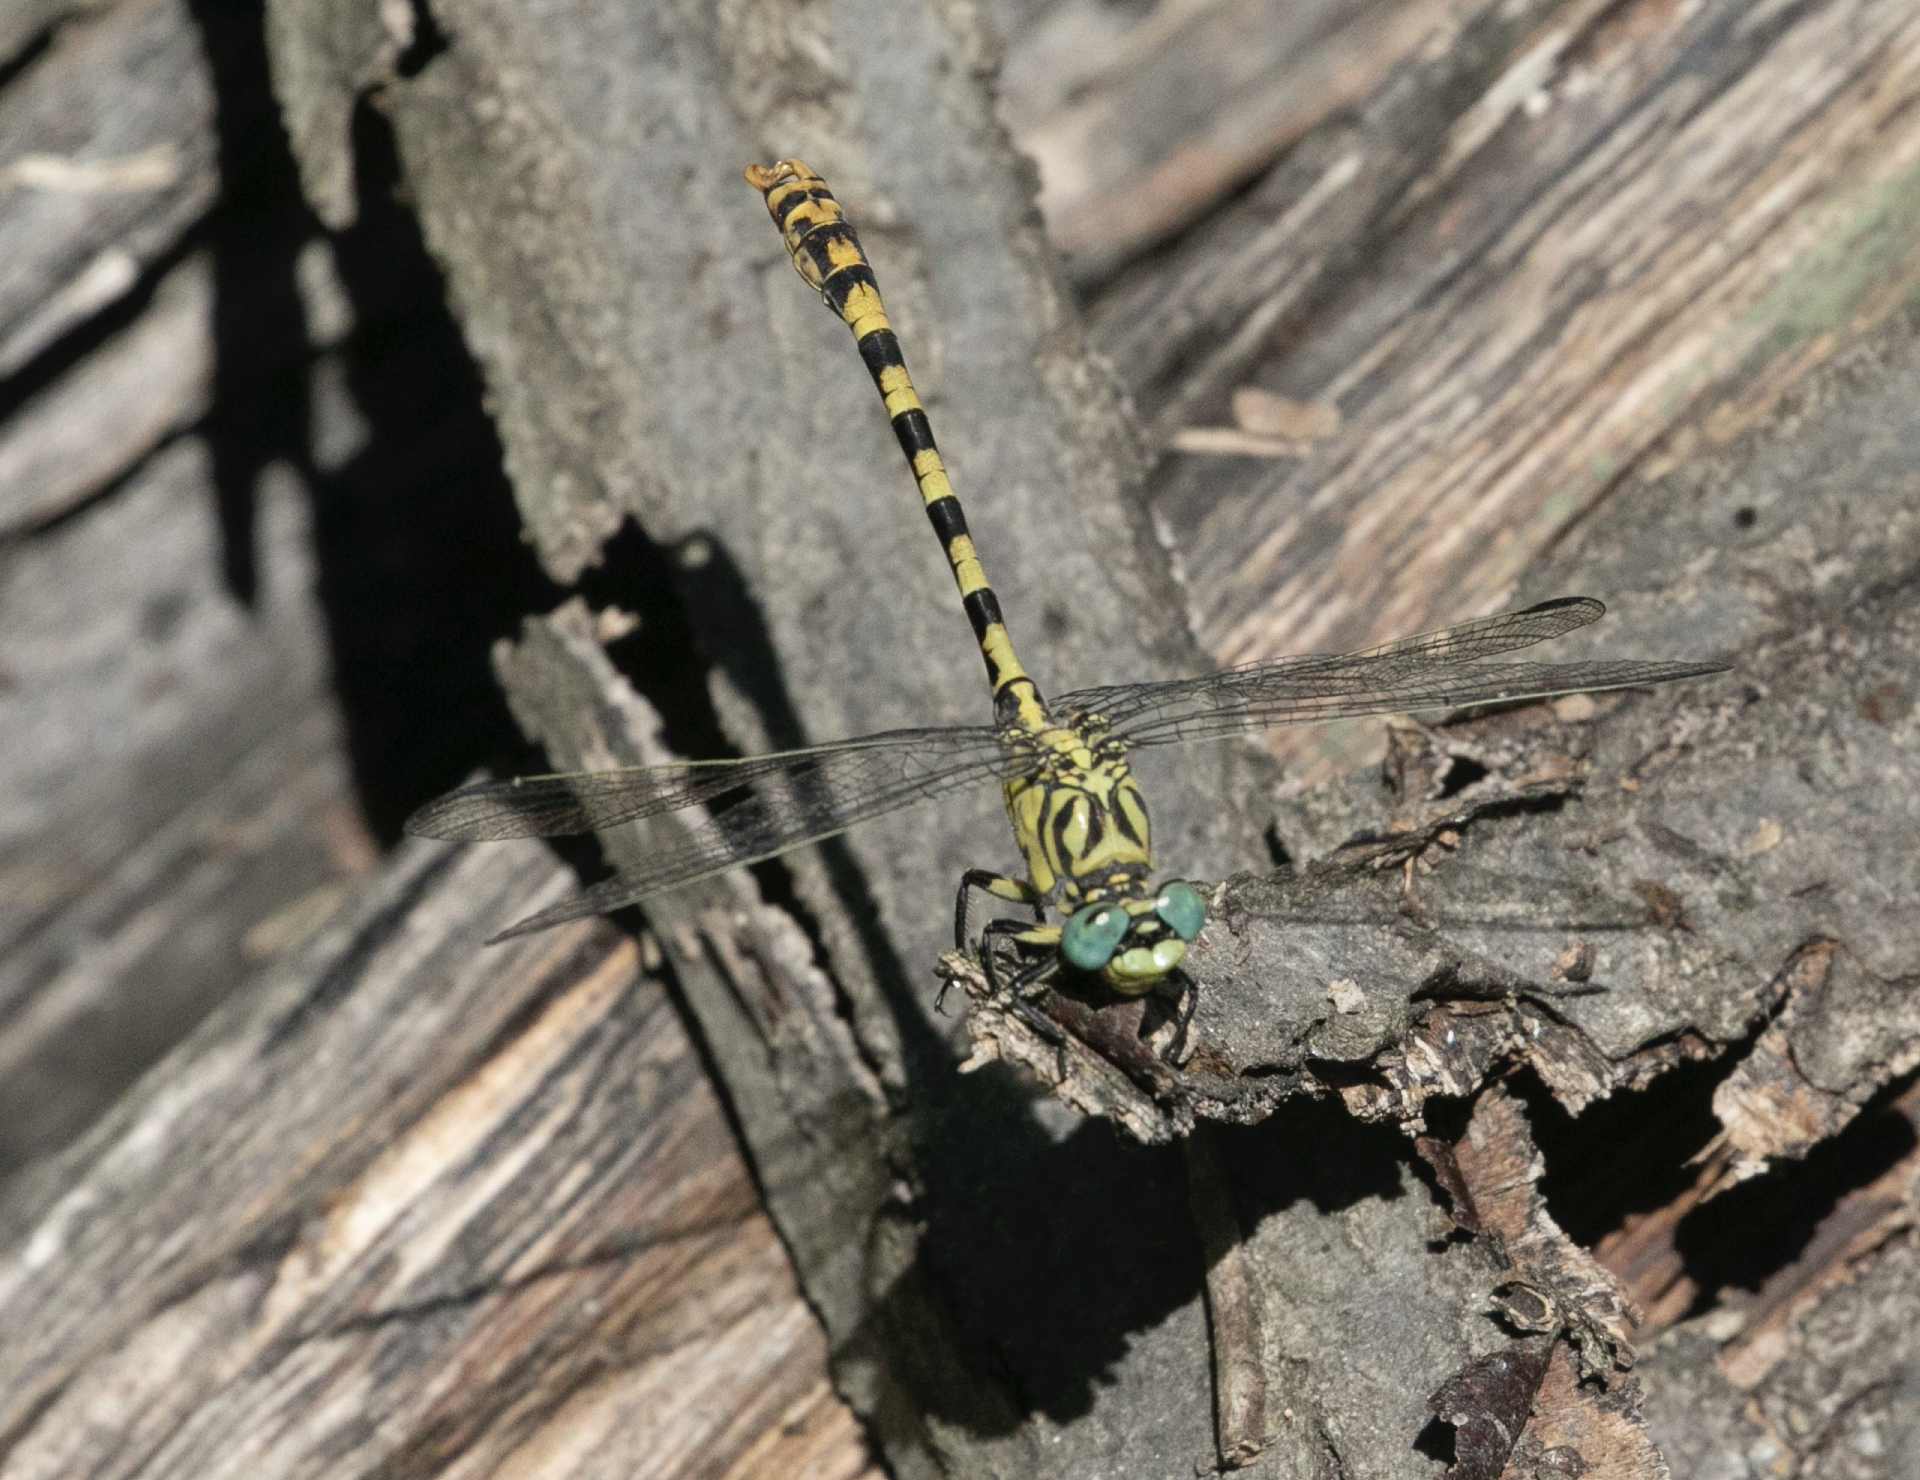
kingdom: Animalia
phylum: Arthropoda
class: Insecta
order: Odonata
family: Gomphidae
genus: Onychogomphus
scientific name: Onychogomphus forcipatus
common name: Small pincertail
